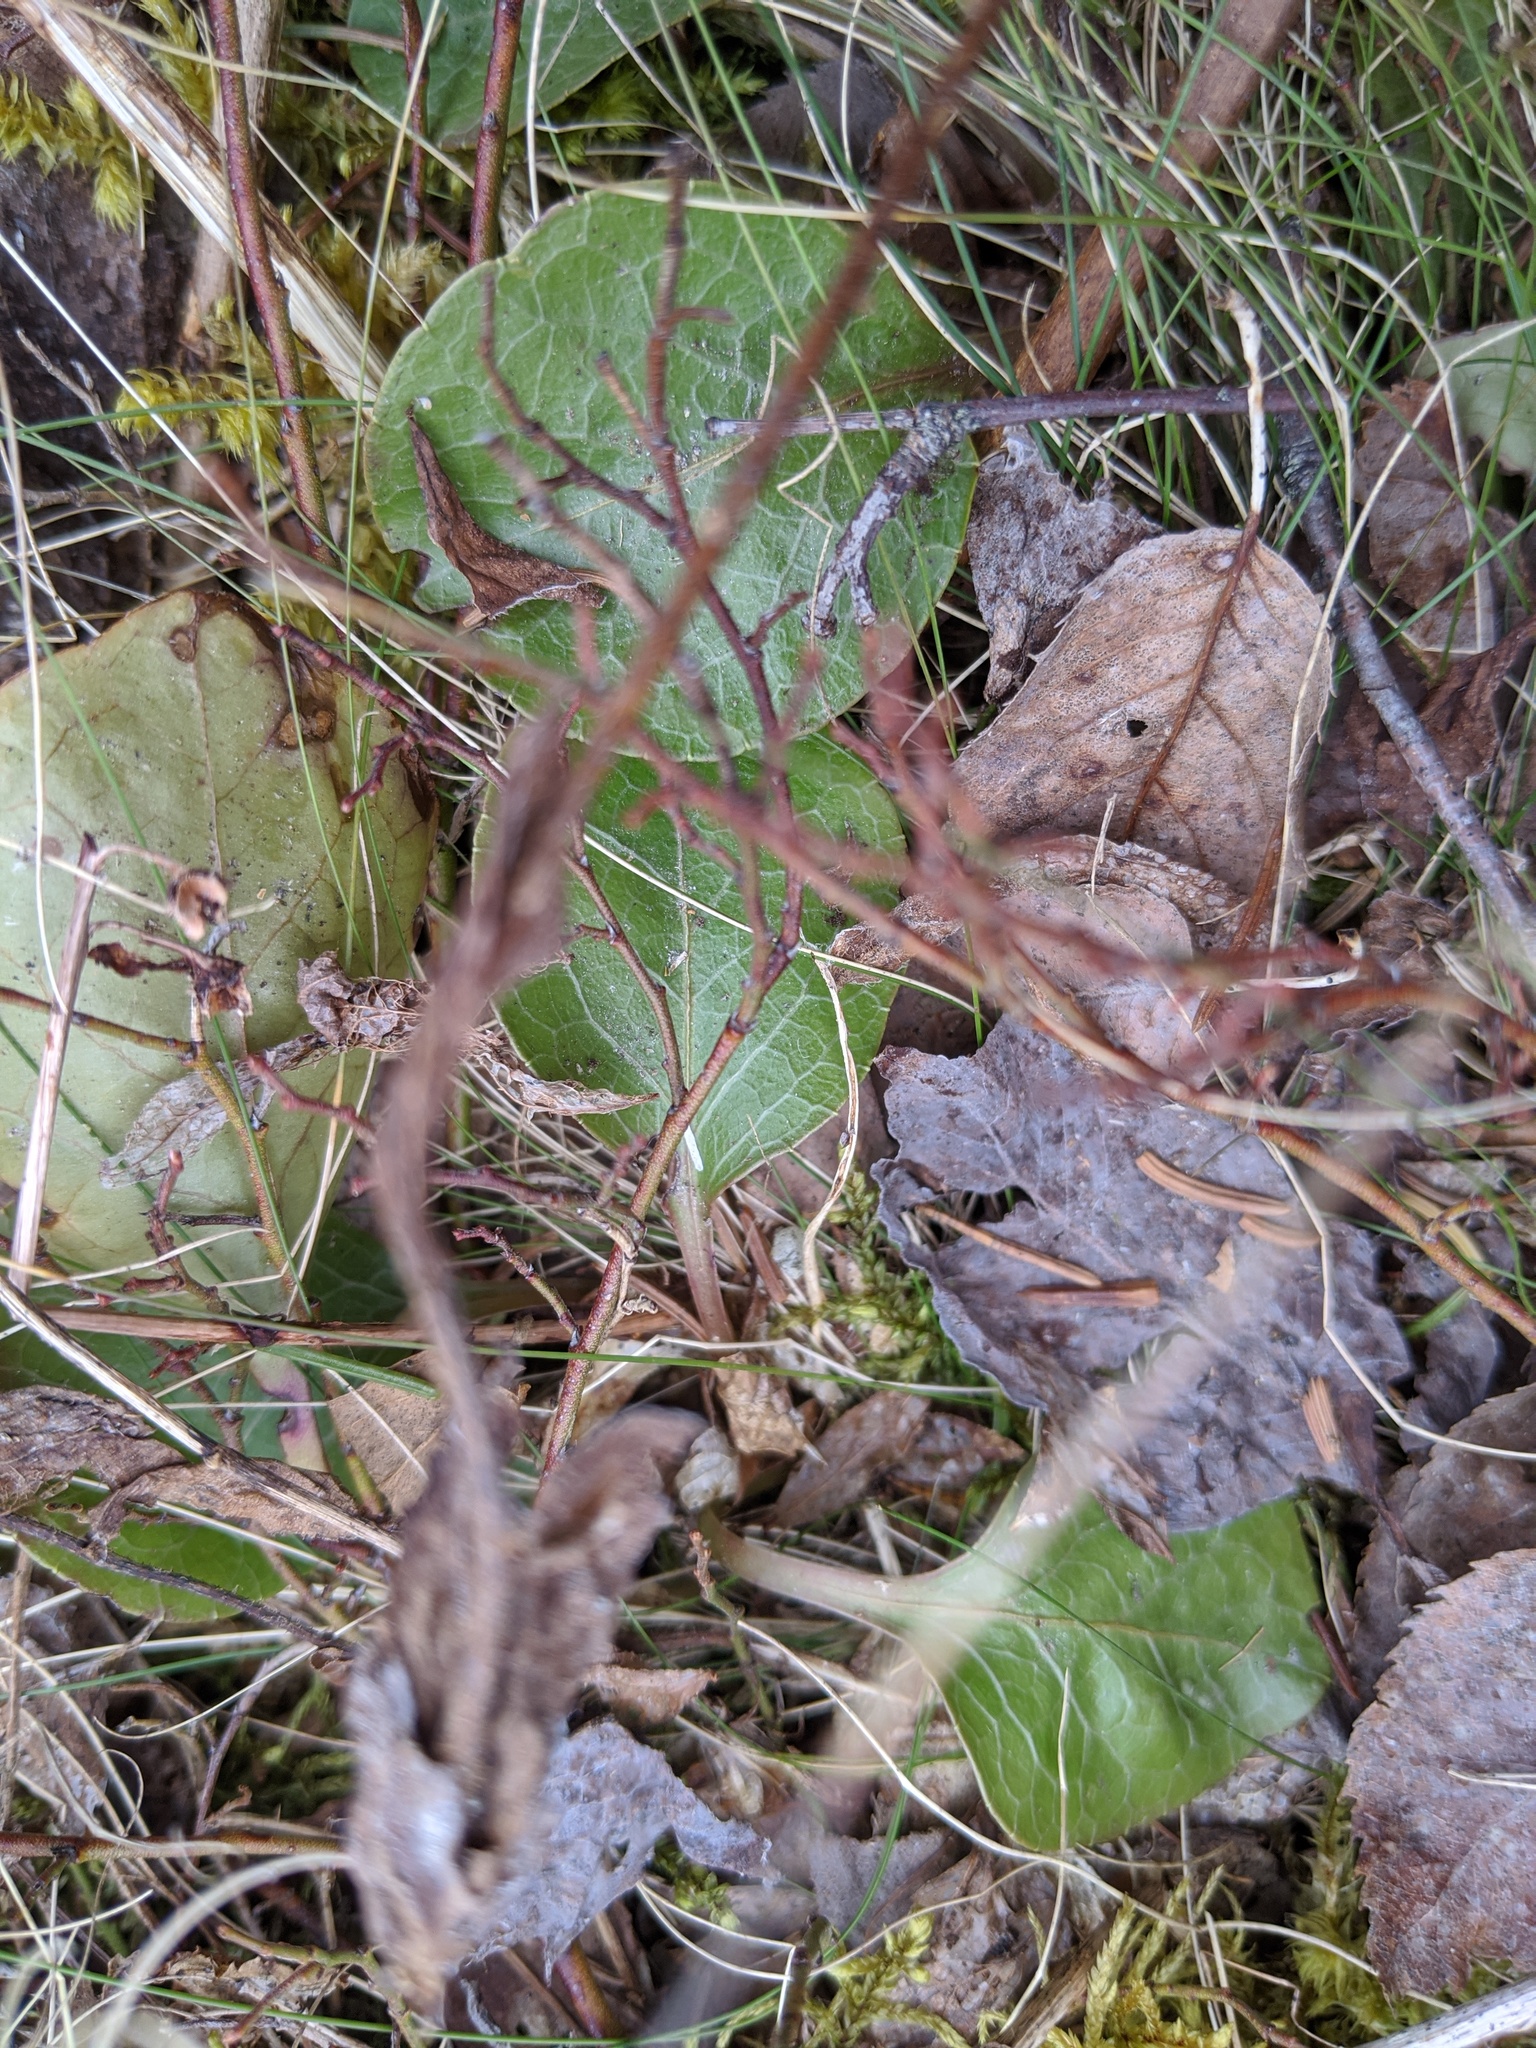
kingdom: Plantae
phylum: Tracheophyta
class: Magnoliopsida
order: Ericales
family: Ericaceae
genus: Pyrola
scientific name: Pyrola americana
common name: American wintergreen
